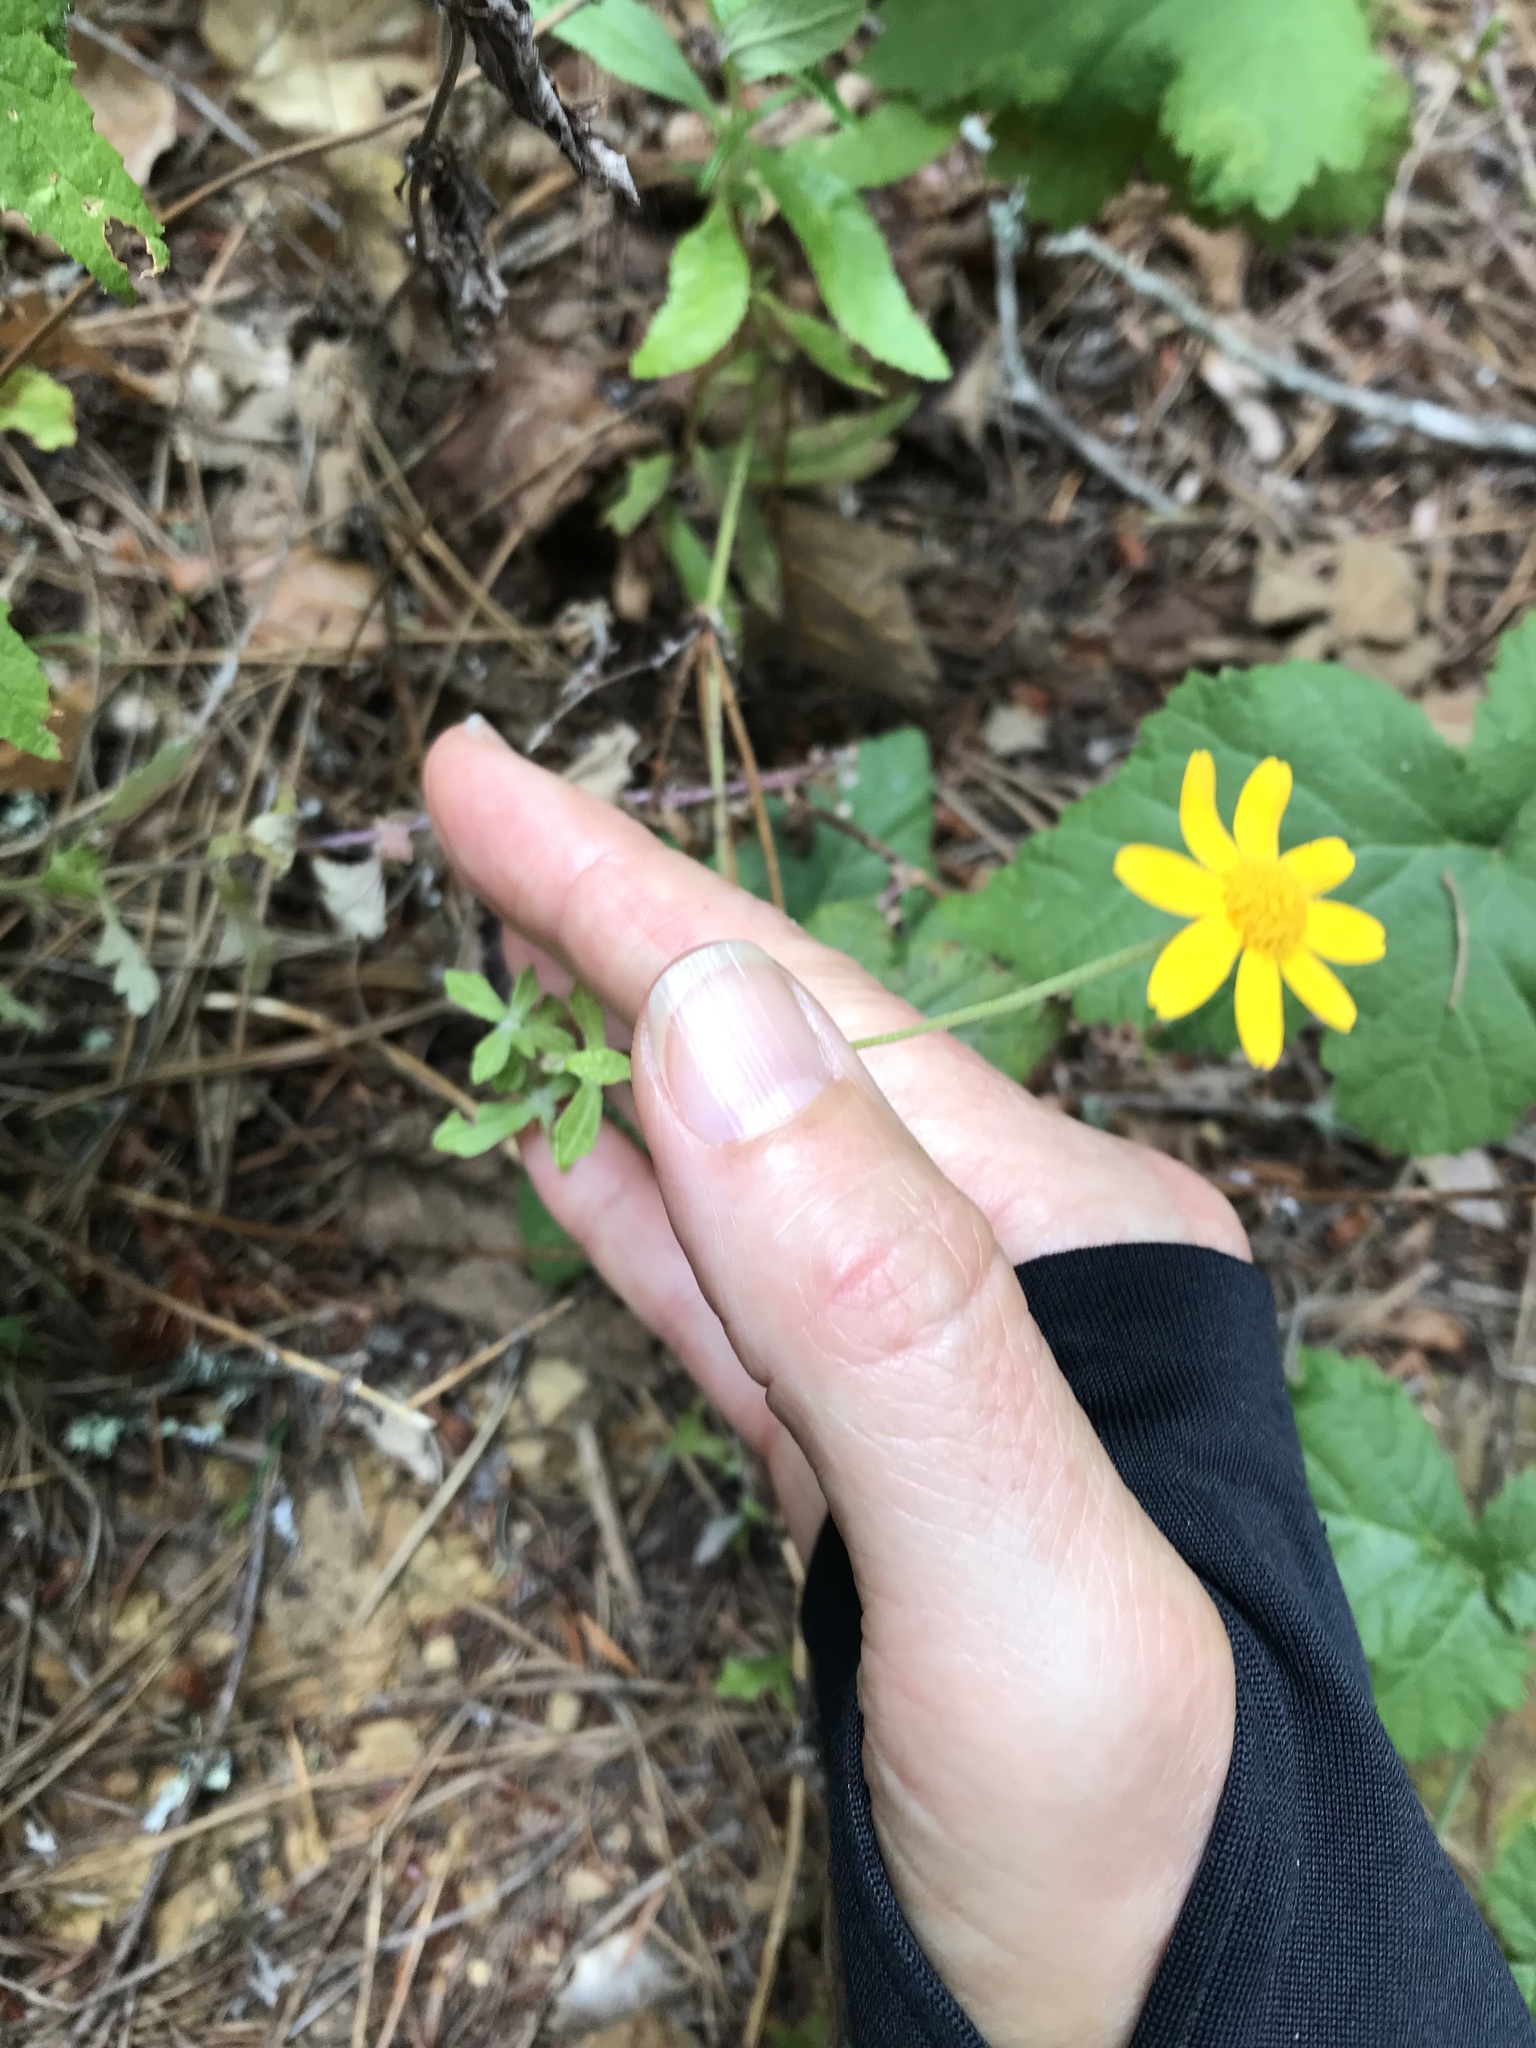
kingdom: Plantae
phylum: Tracheophyta
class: Magnoliopsida
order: Asterales
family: Asteraceae
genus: Eriophyllum
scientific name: Eriophyllum lanatum
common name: Common woolly-sunflower
